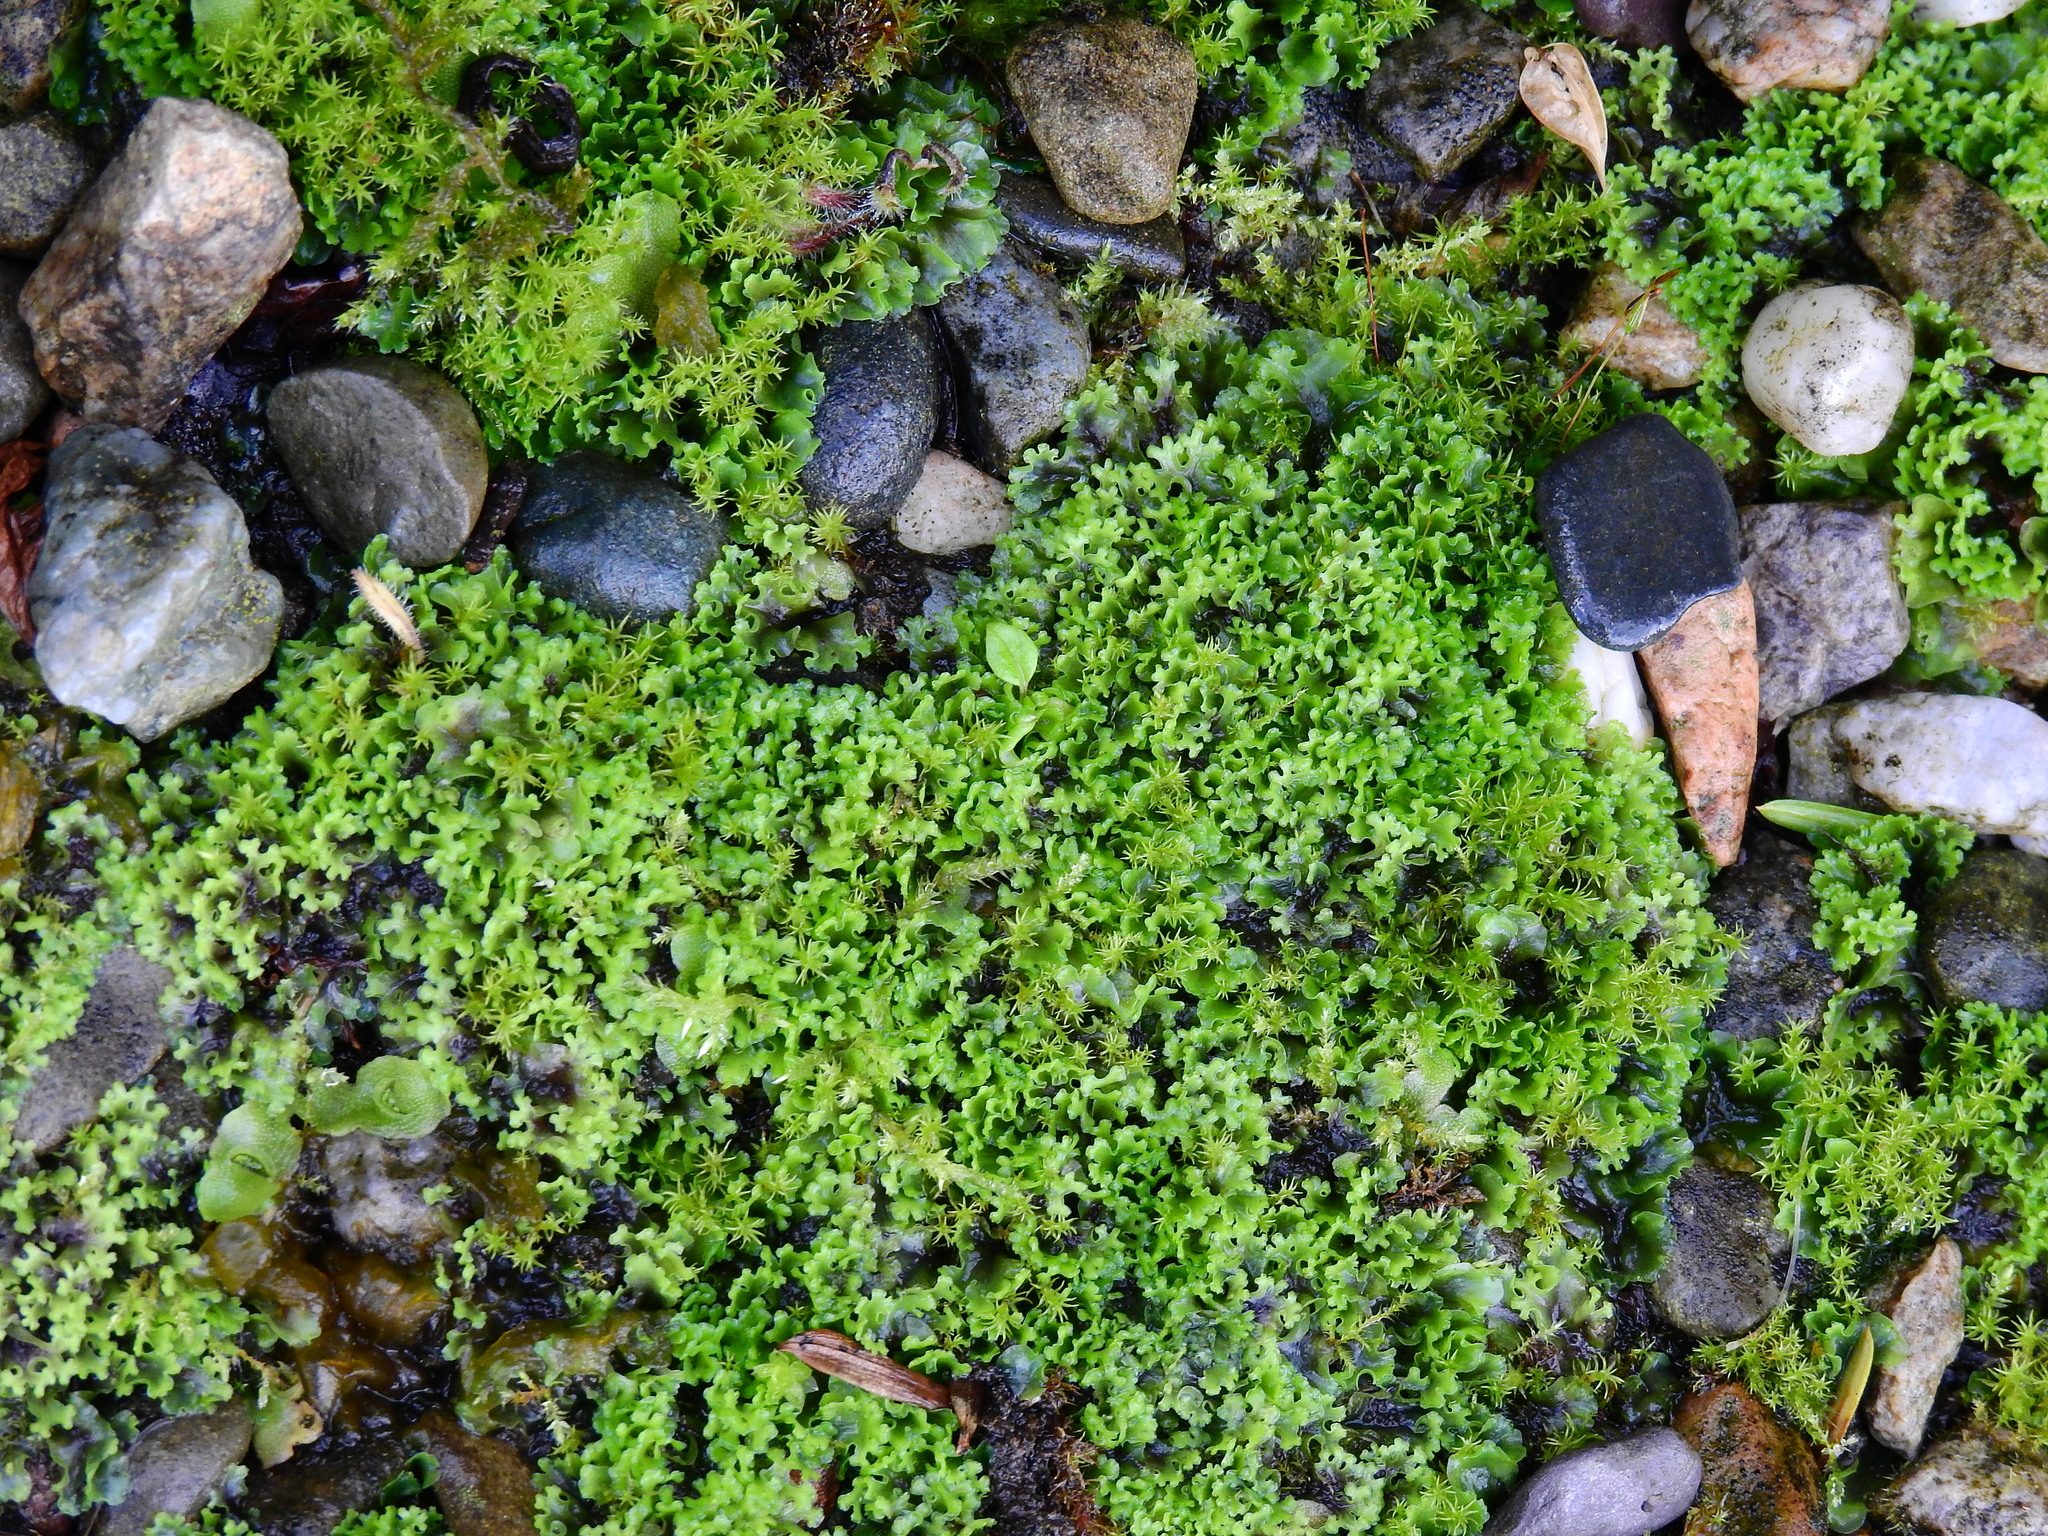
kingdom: Plantae
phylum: Marchantiophyta
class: Jungermanniopsida
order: Pelliales
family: Pelliaceae
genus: Apopellia
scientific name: Apopellia endiviifolia
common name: Endive pellia
